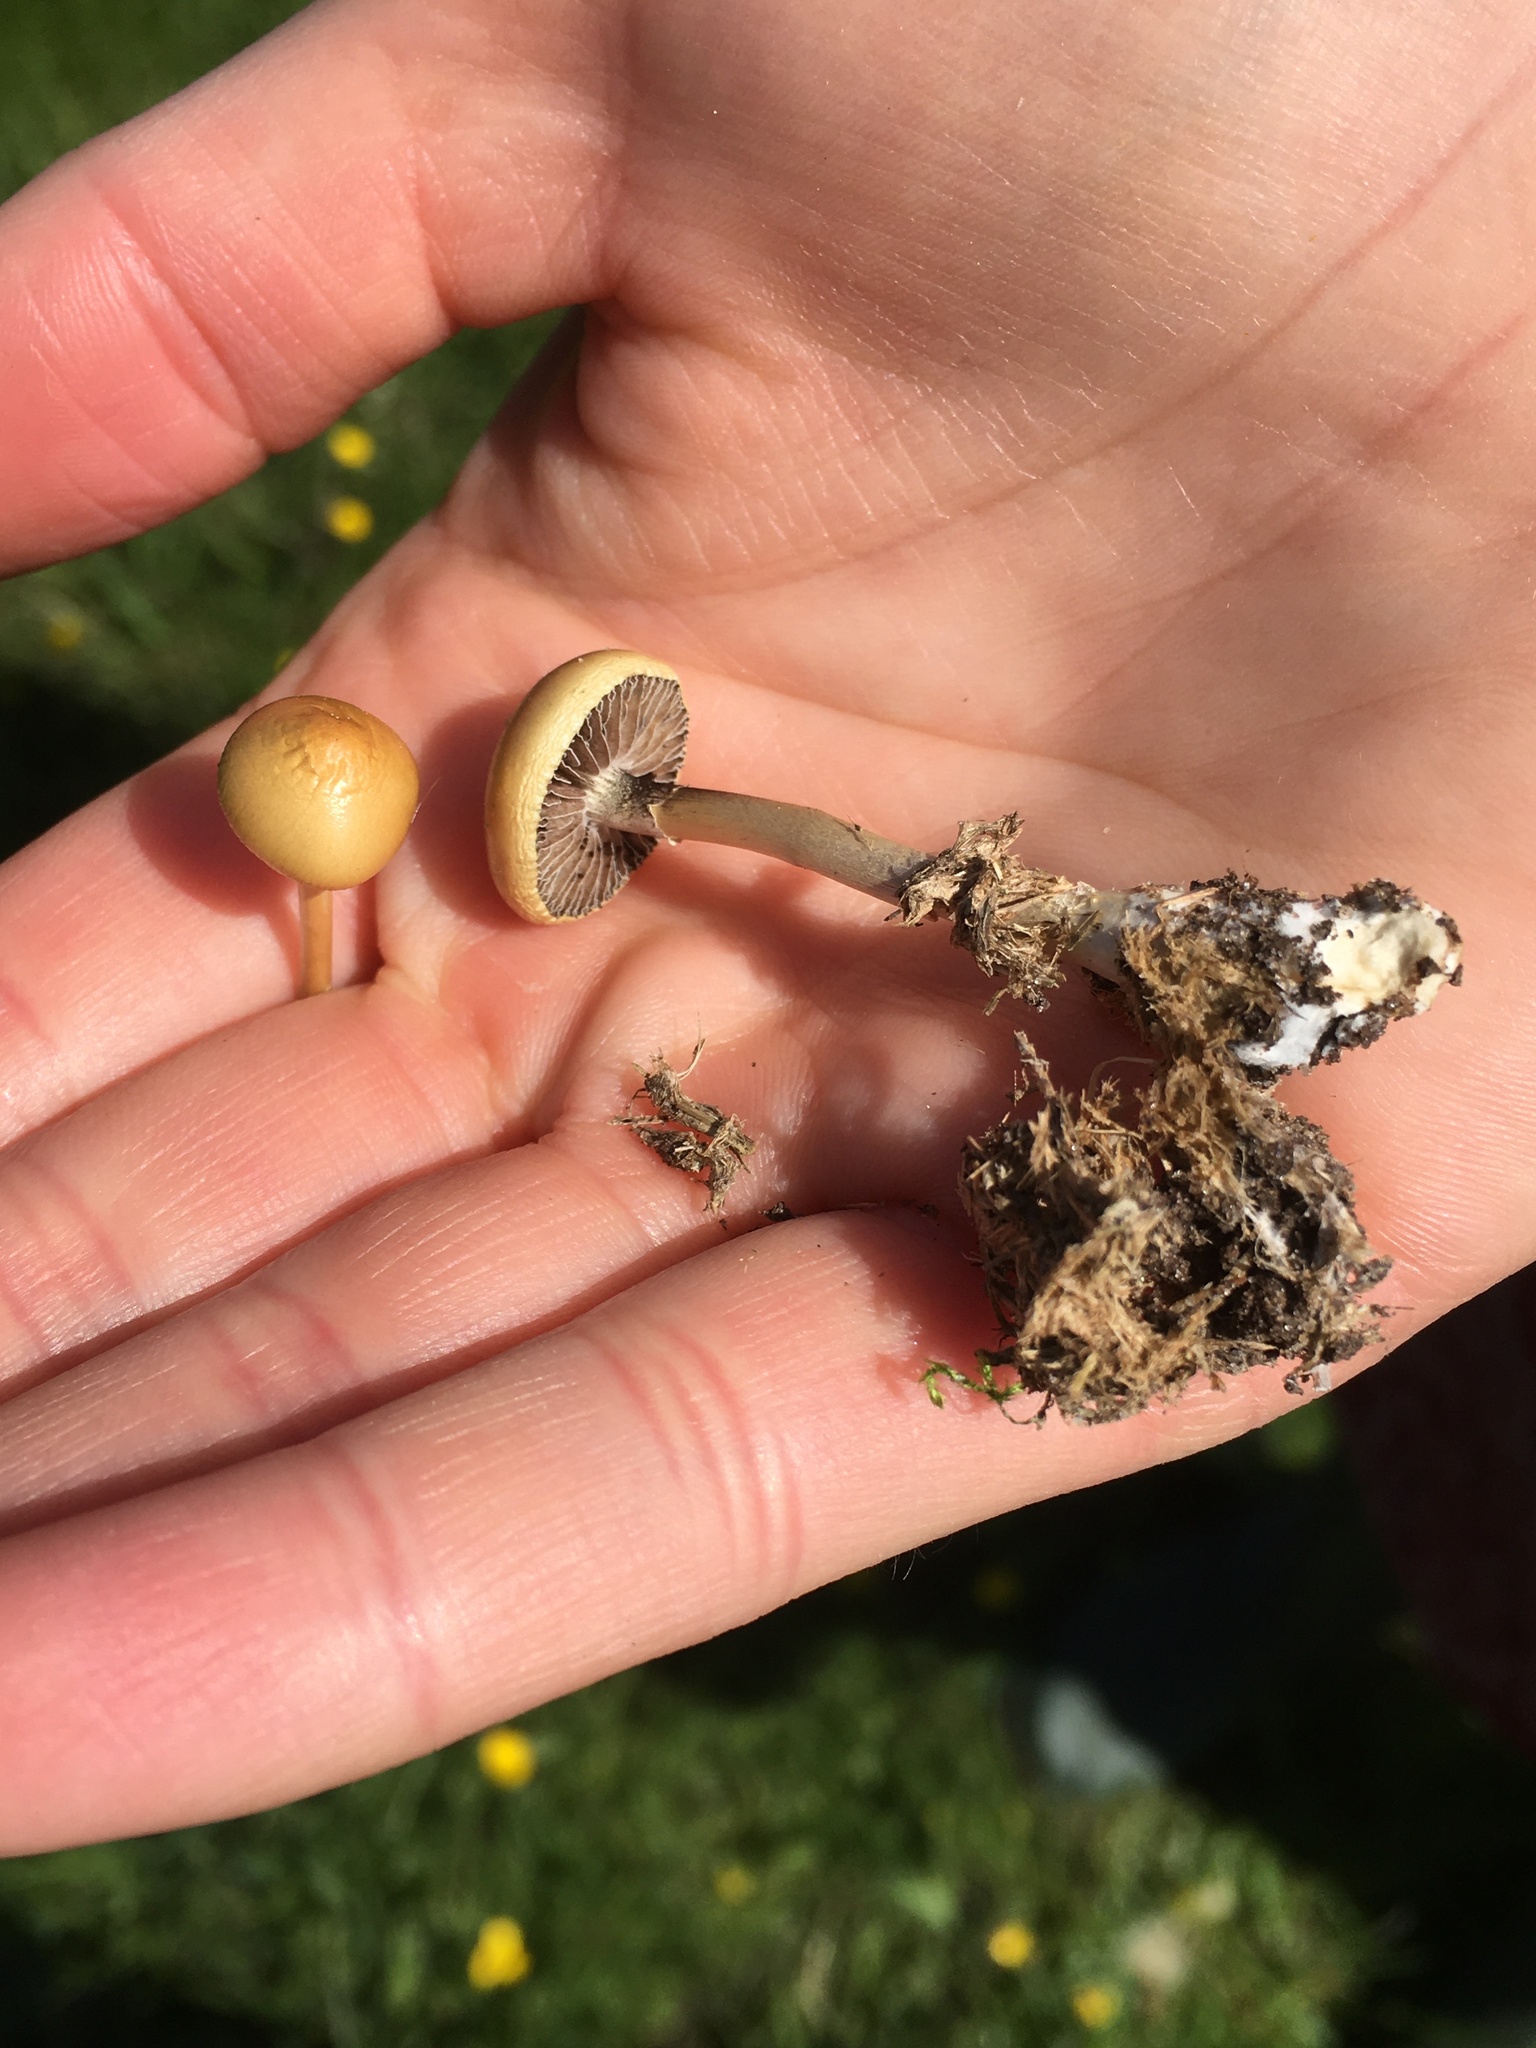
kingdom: Fungi
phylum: Basidiomycota
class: Agaricomycetes
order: Agaricales
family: Strophariaceae
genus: Protostropharia
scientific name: Protostropharia semiglobata
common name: Dung roundhead
